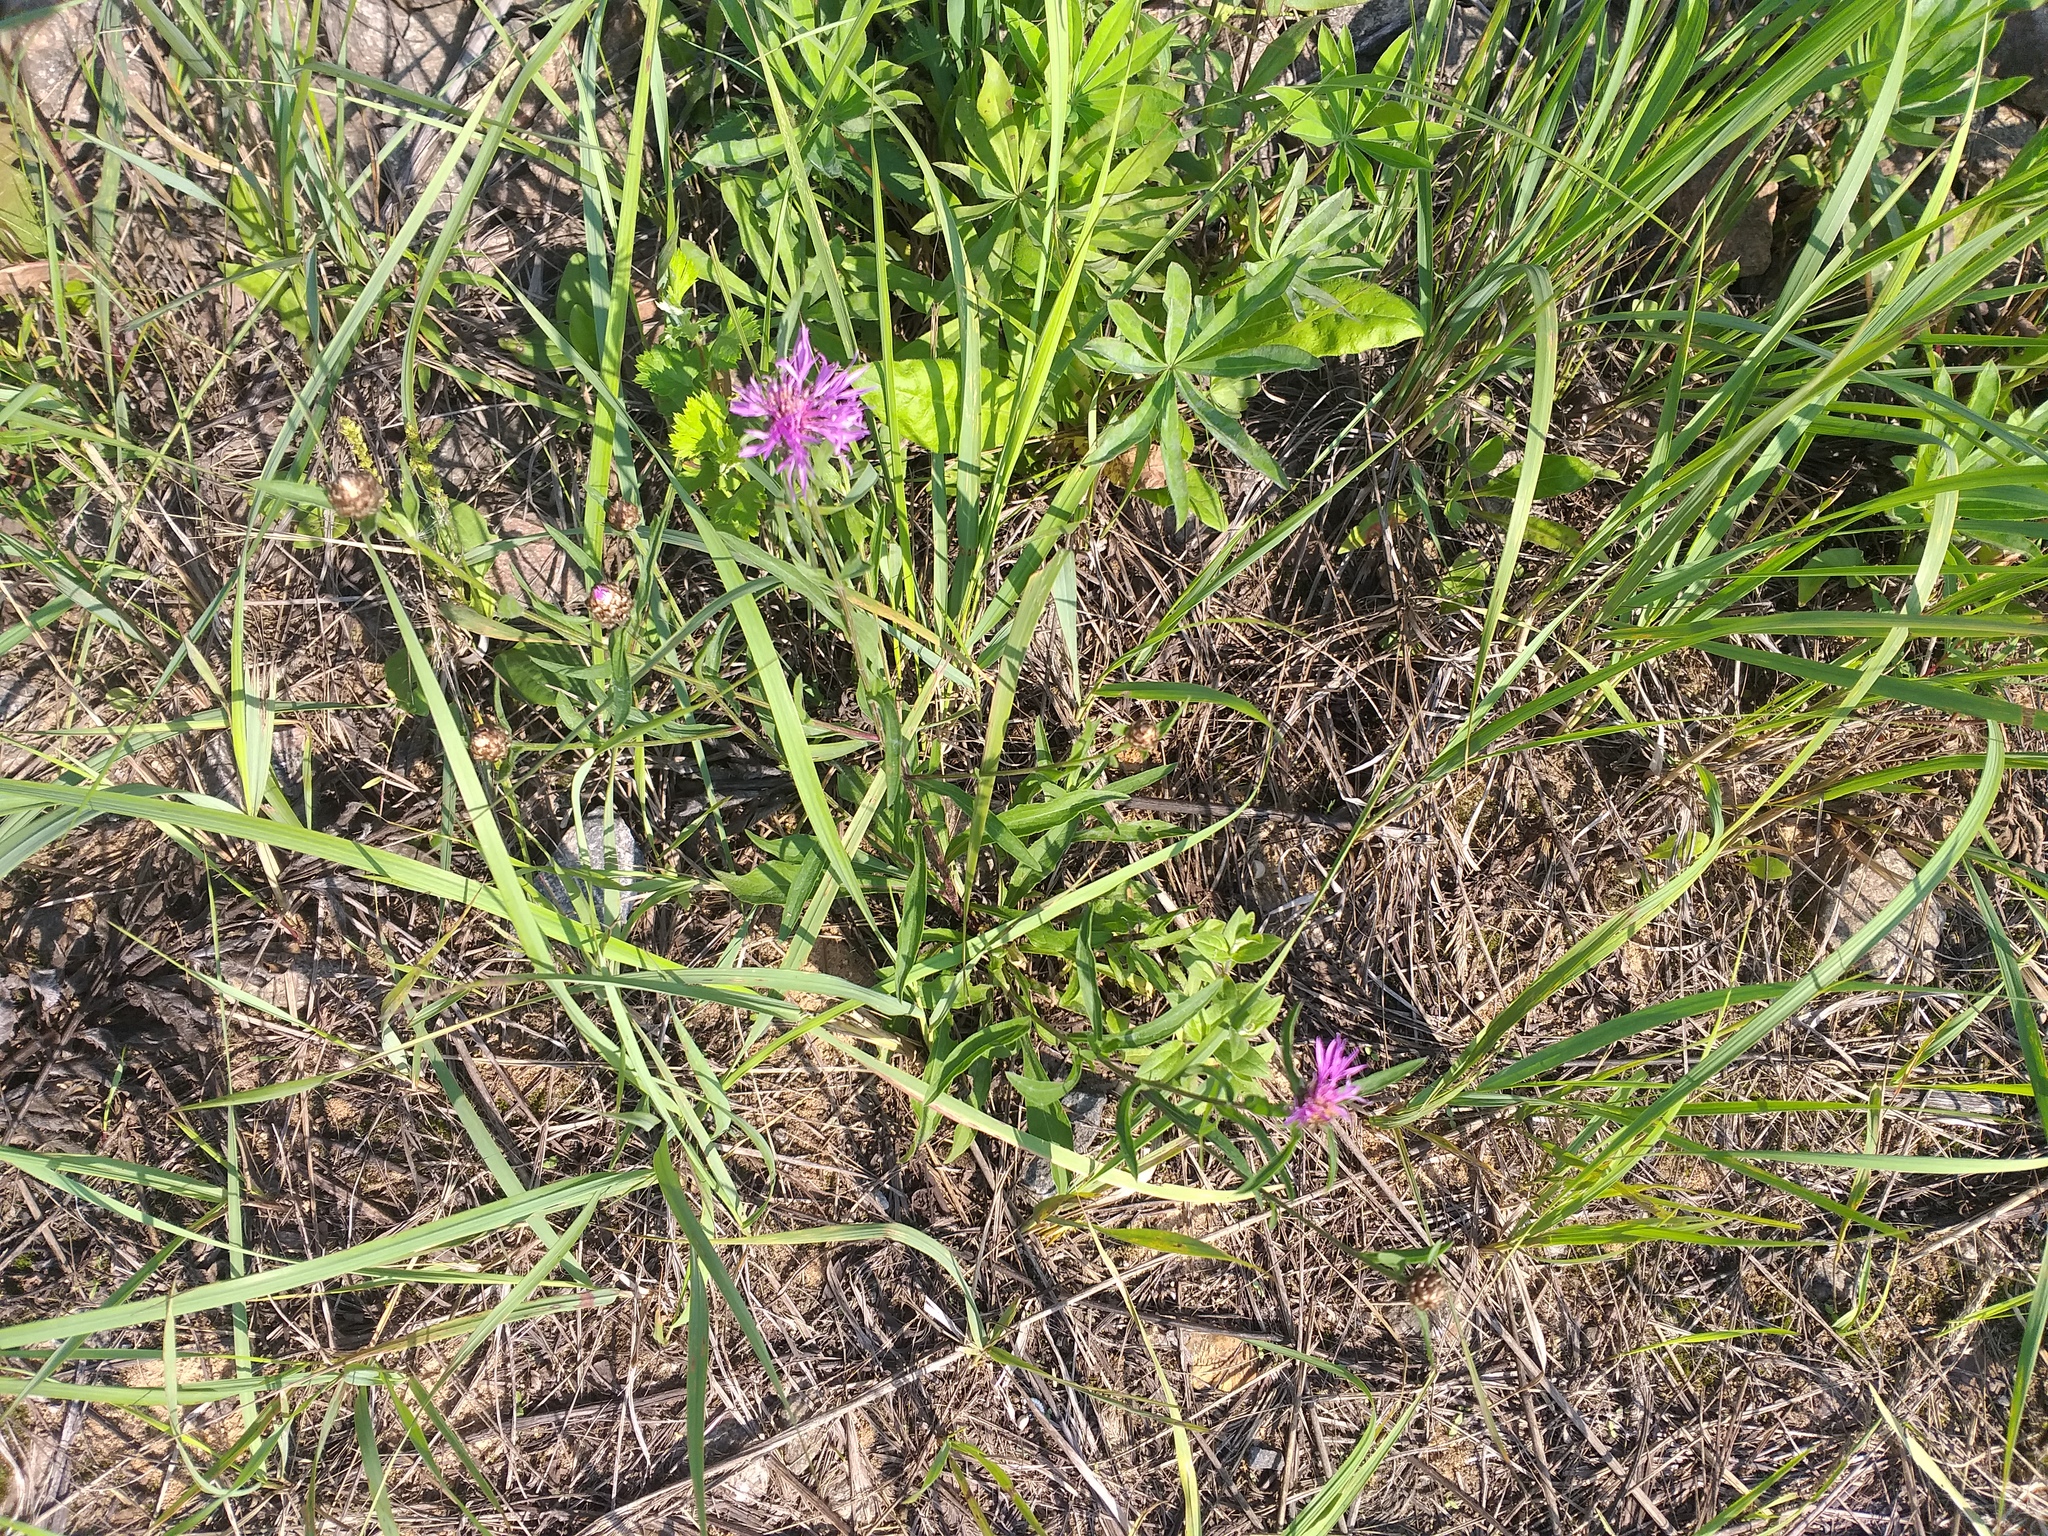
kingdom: Plantae
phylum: Tracheophyta
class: Magnoliopsida
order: Asterales
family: Asteraceae
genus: Centaurea
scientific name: Centaurea jacea
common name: Brown knapweed
